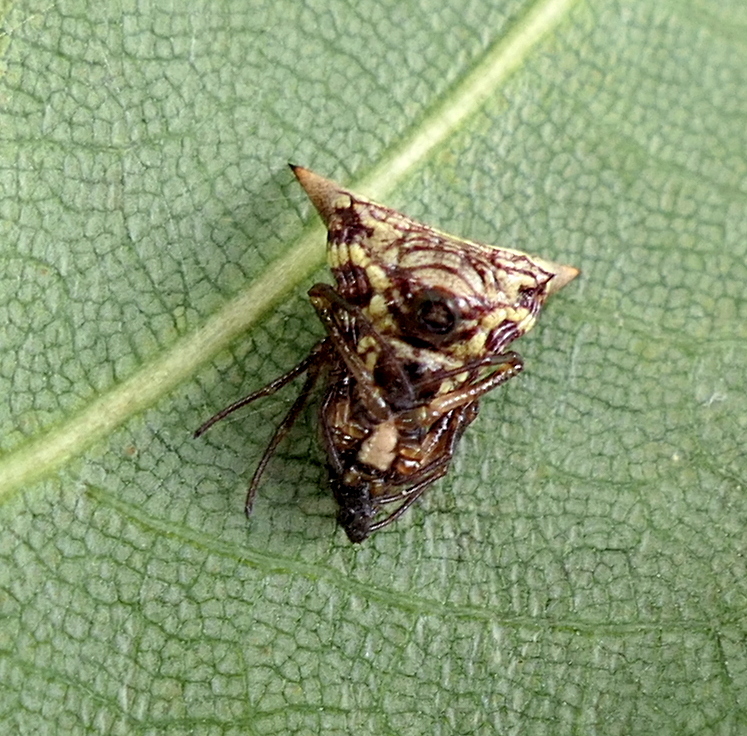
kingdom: Animalia
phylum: Arthropoda
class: Arachnida
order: Araneae
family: Araneidae
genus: Micrathena
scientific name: Micrathena evansi
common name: Orb weavers
